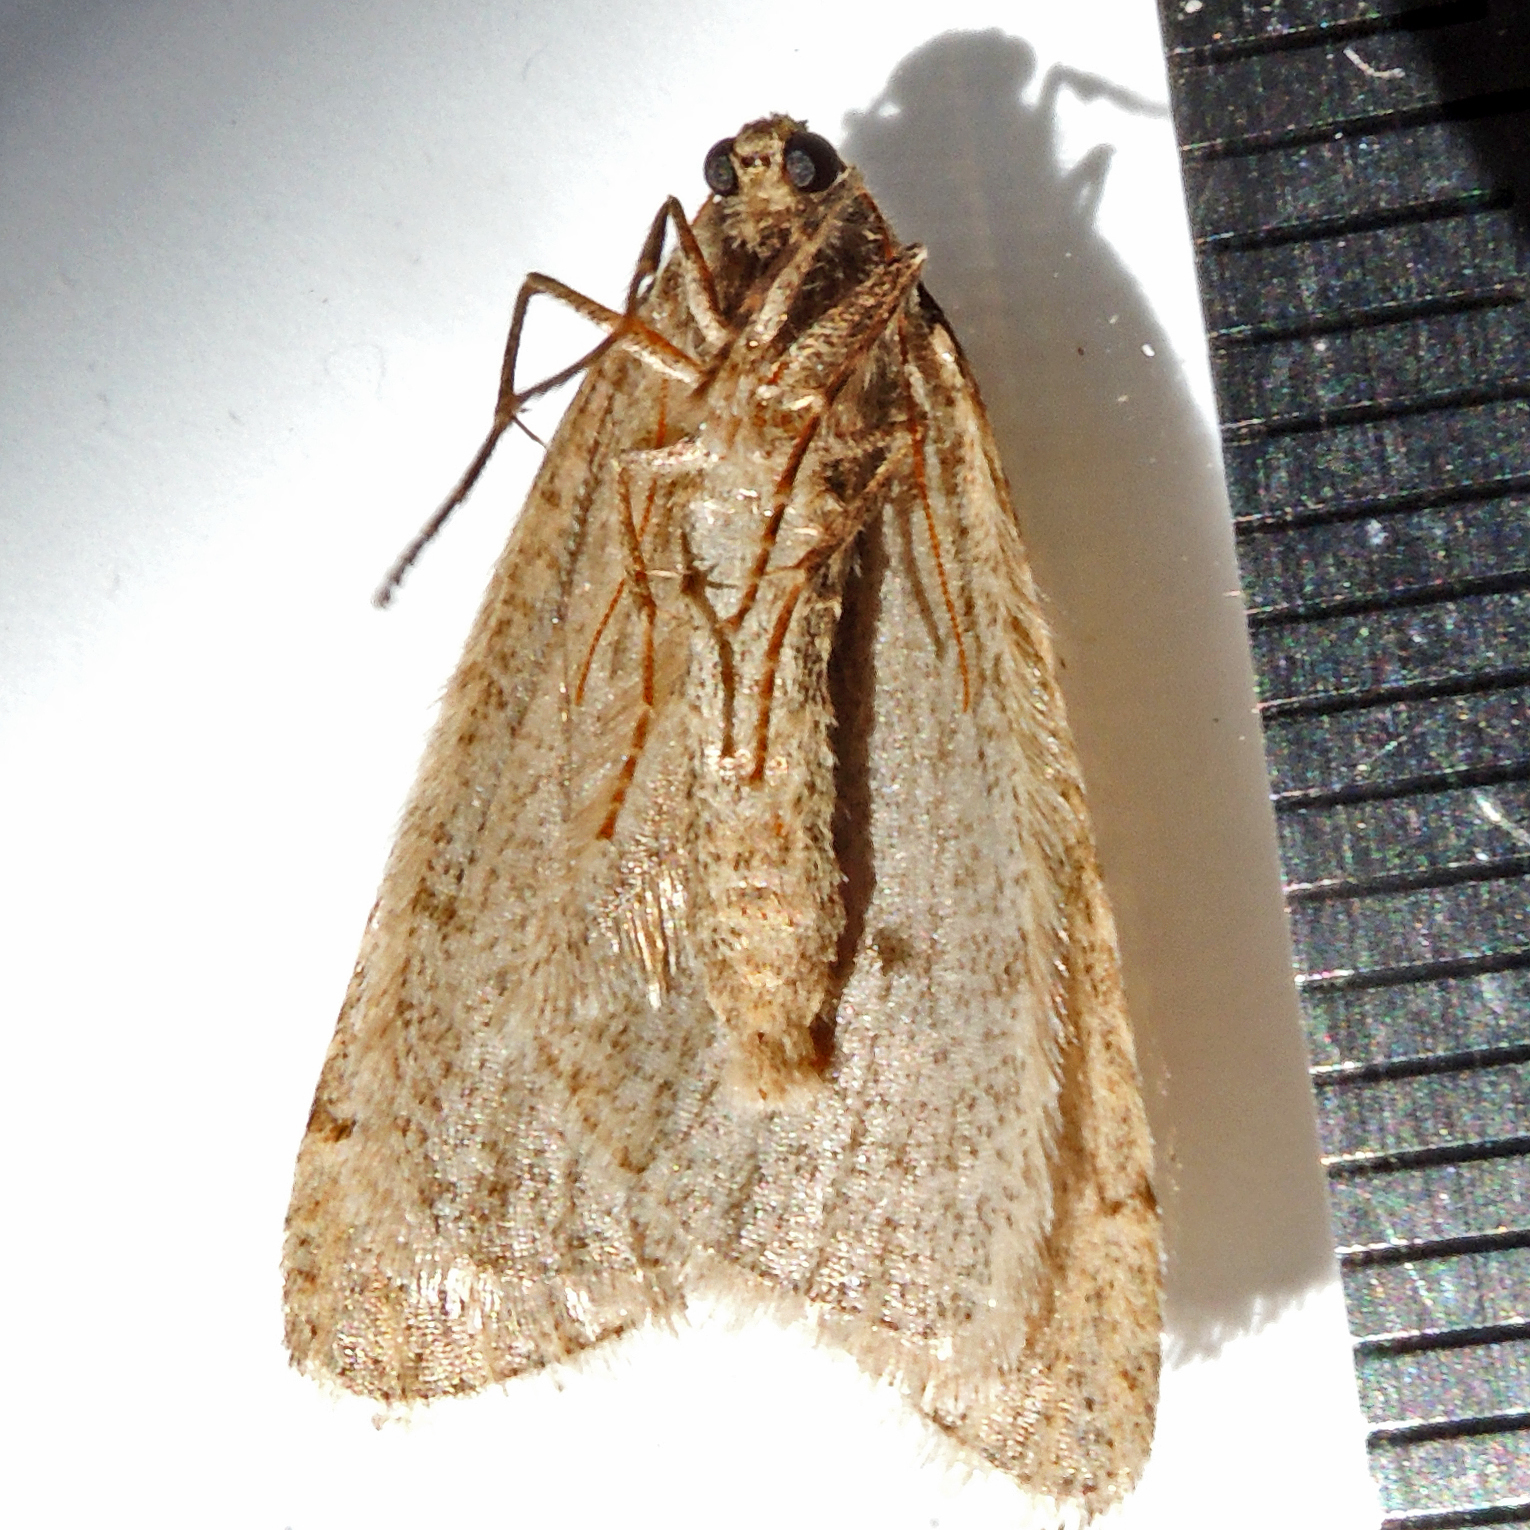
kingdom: Animalia
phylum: Arthropoda
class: Insecta
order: Lepidoptera
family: Geometridae
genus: Paleacrita
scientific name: Paleacrita vernata
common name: Spring cankerworm
